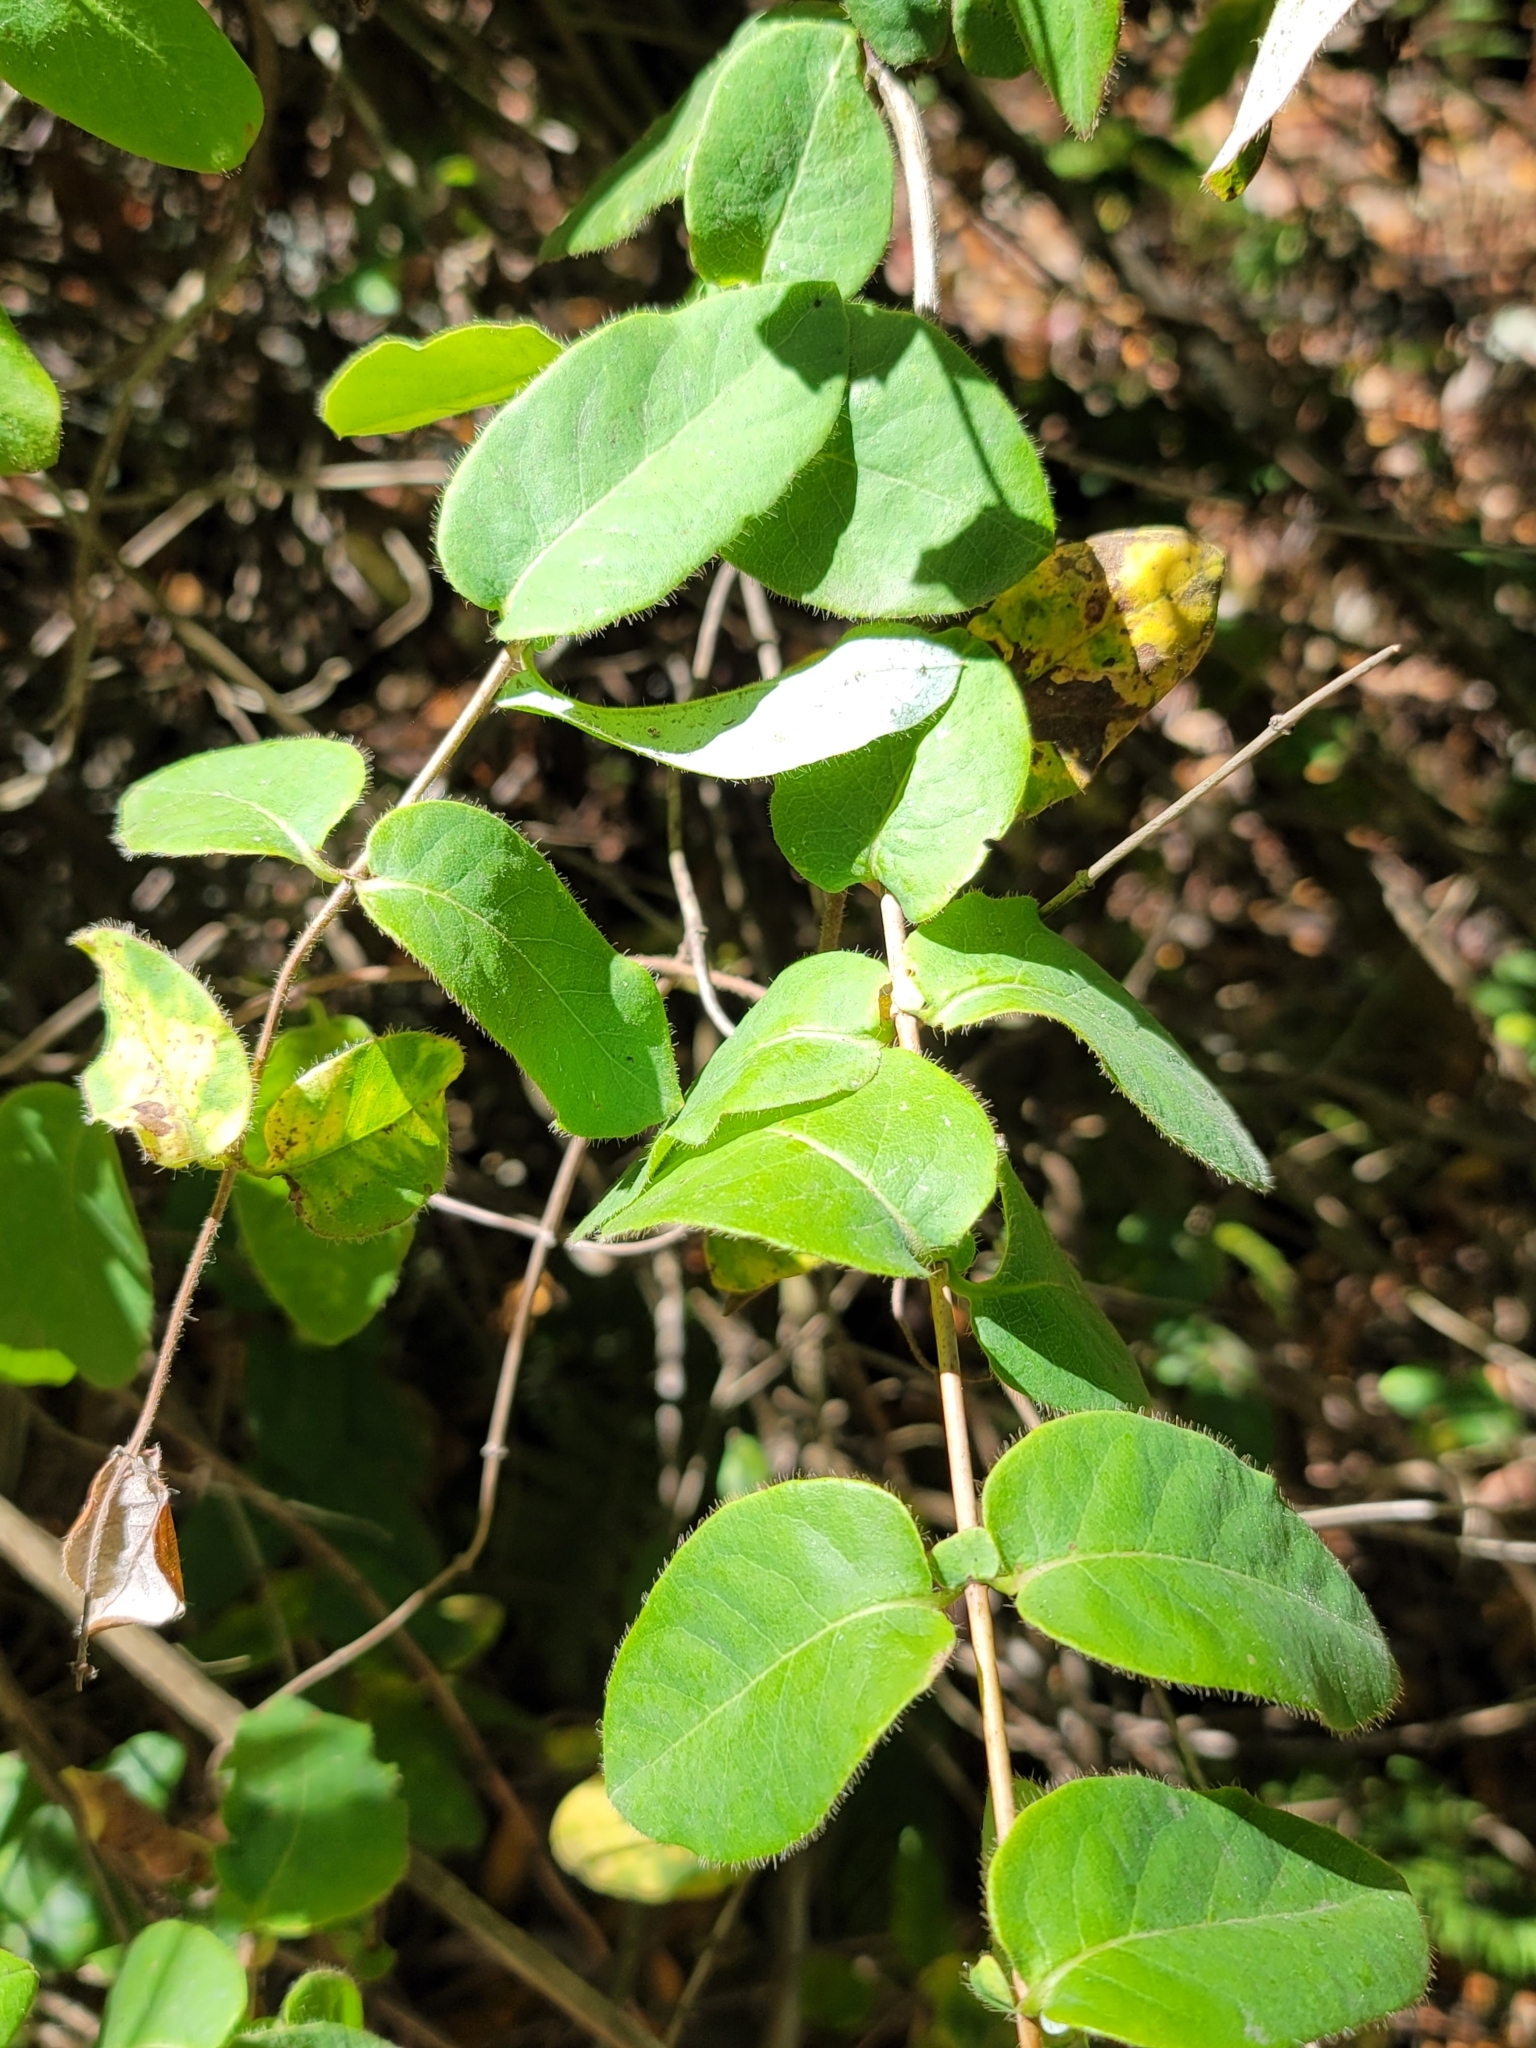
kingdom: Plantae
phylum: Tracheophyta
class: Magnoliopsida
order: Dipsacales
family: Caprifoliaceae
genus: Lonicera
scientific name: Lonicera hispidula
